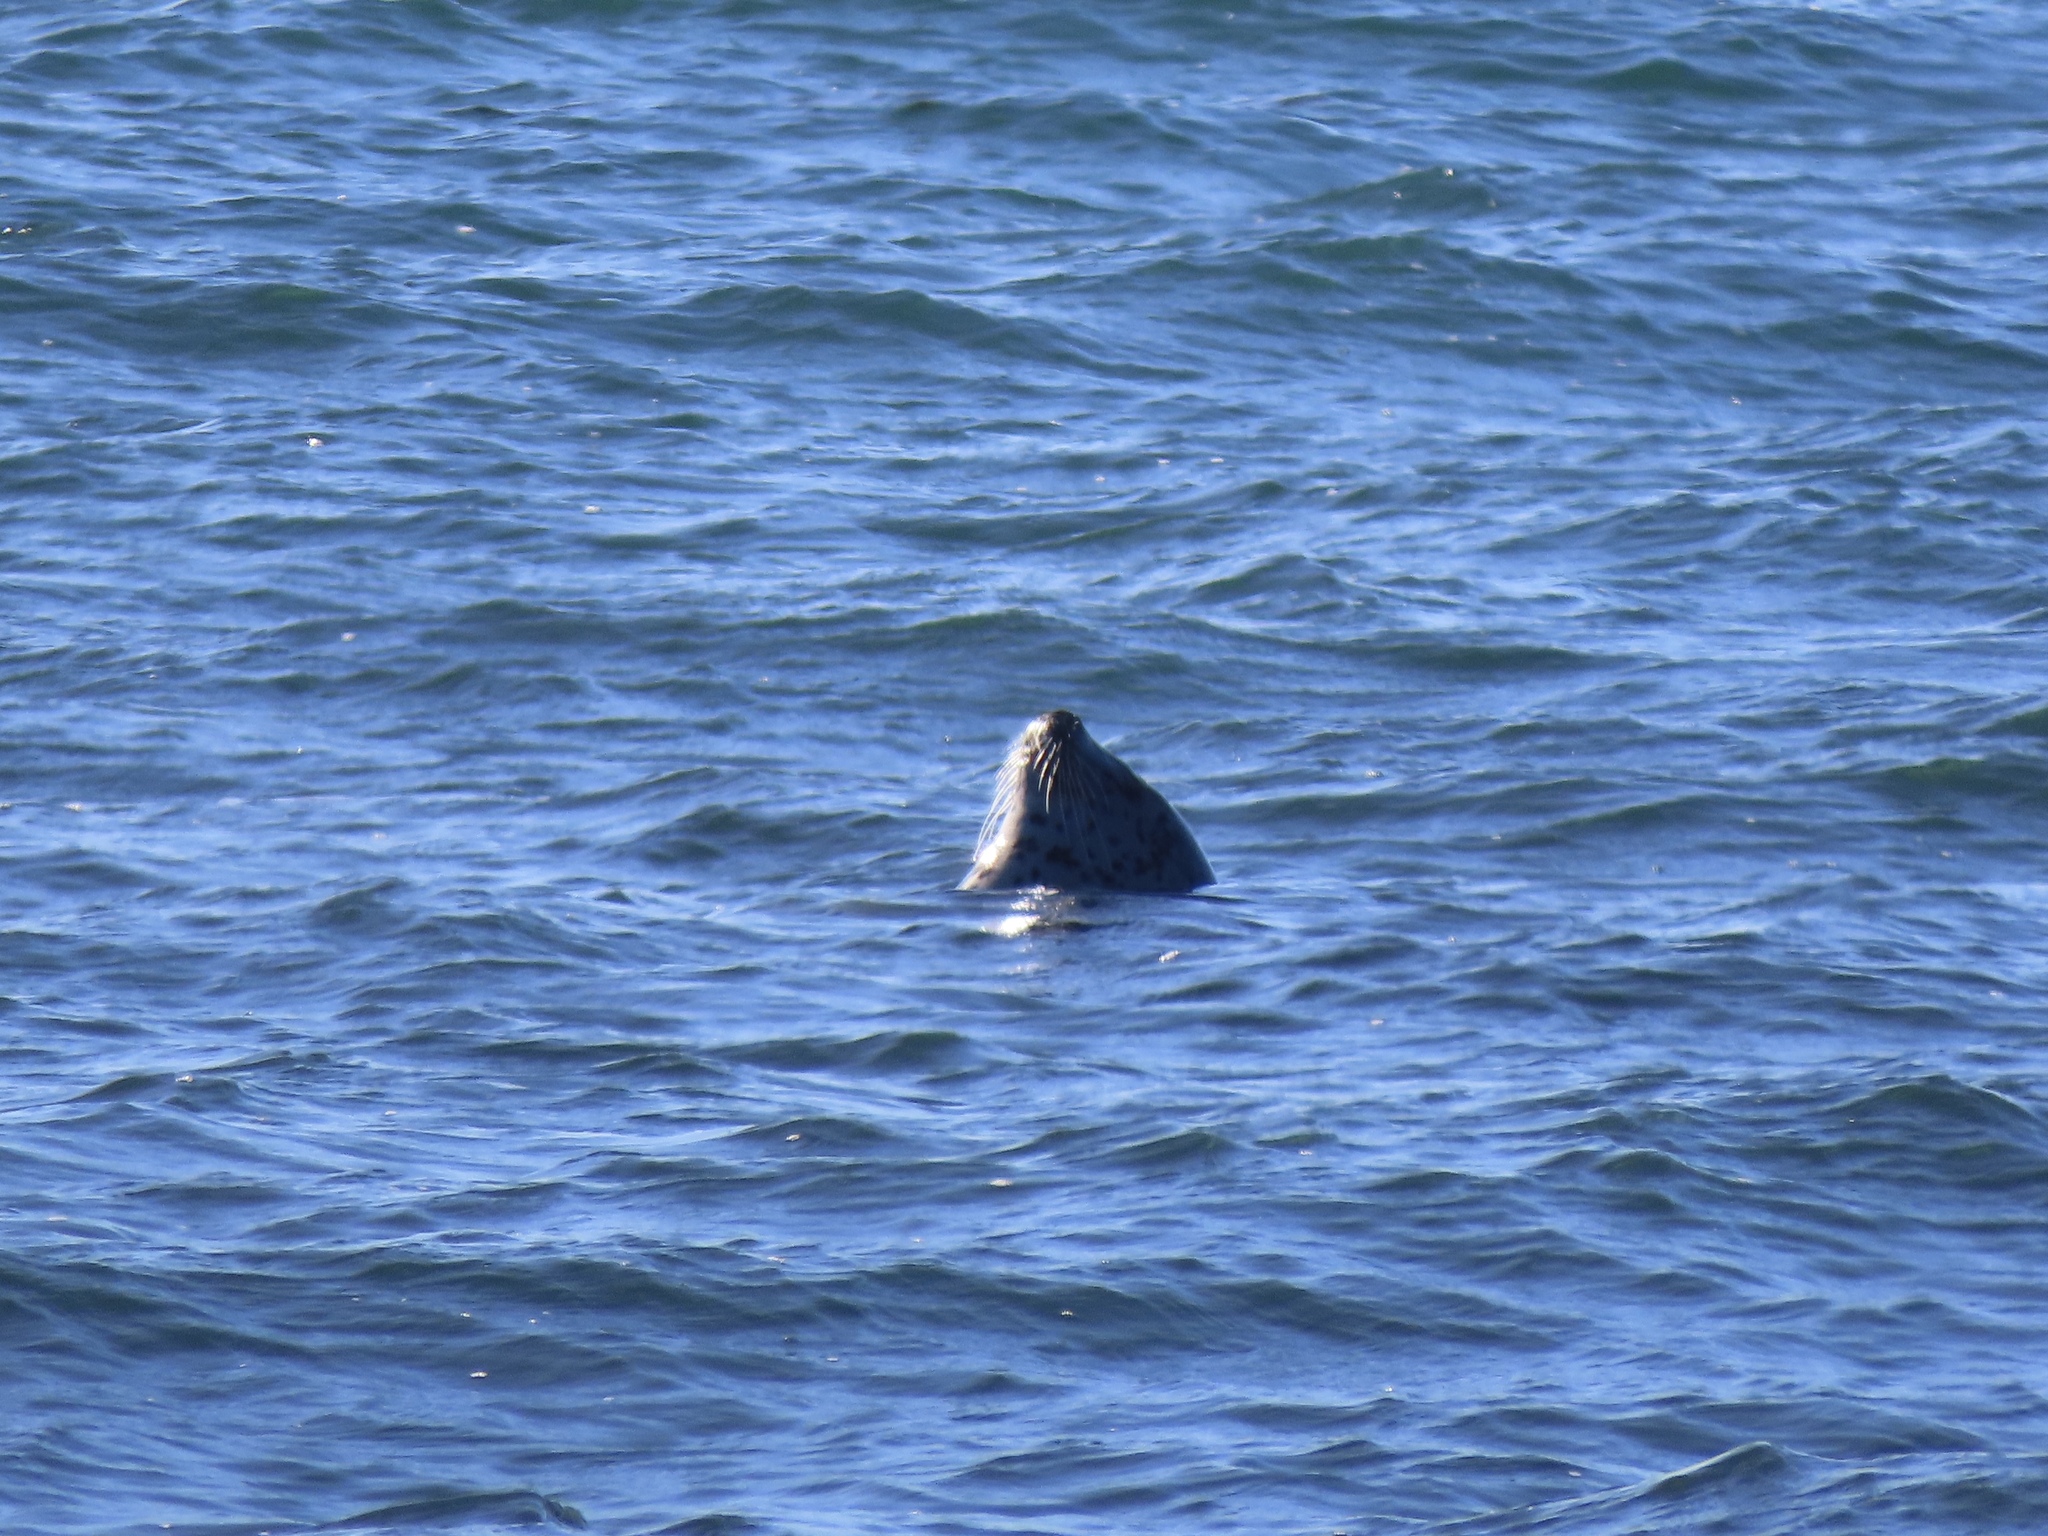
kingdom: Animalia
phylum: Chordata
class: Mammalia
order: Carnivora
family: Phocidae
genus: Phoca
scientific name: Phoca vitulina
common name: Harbor seal
